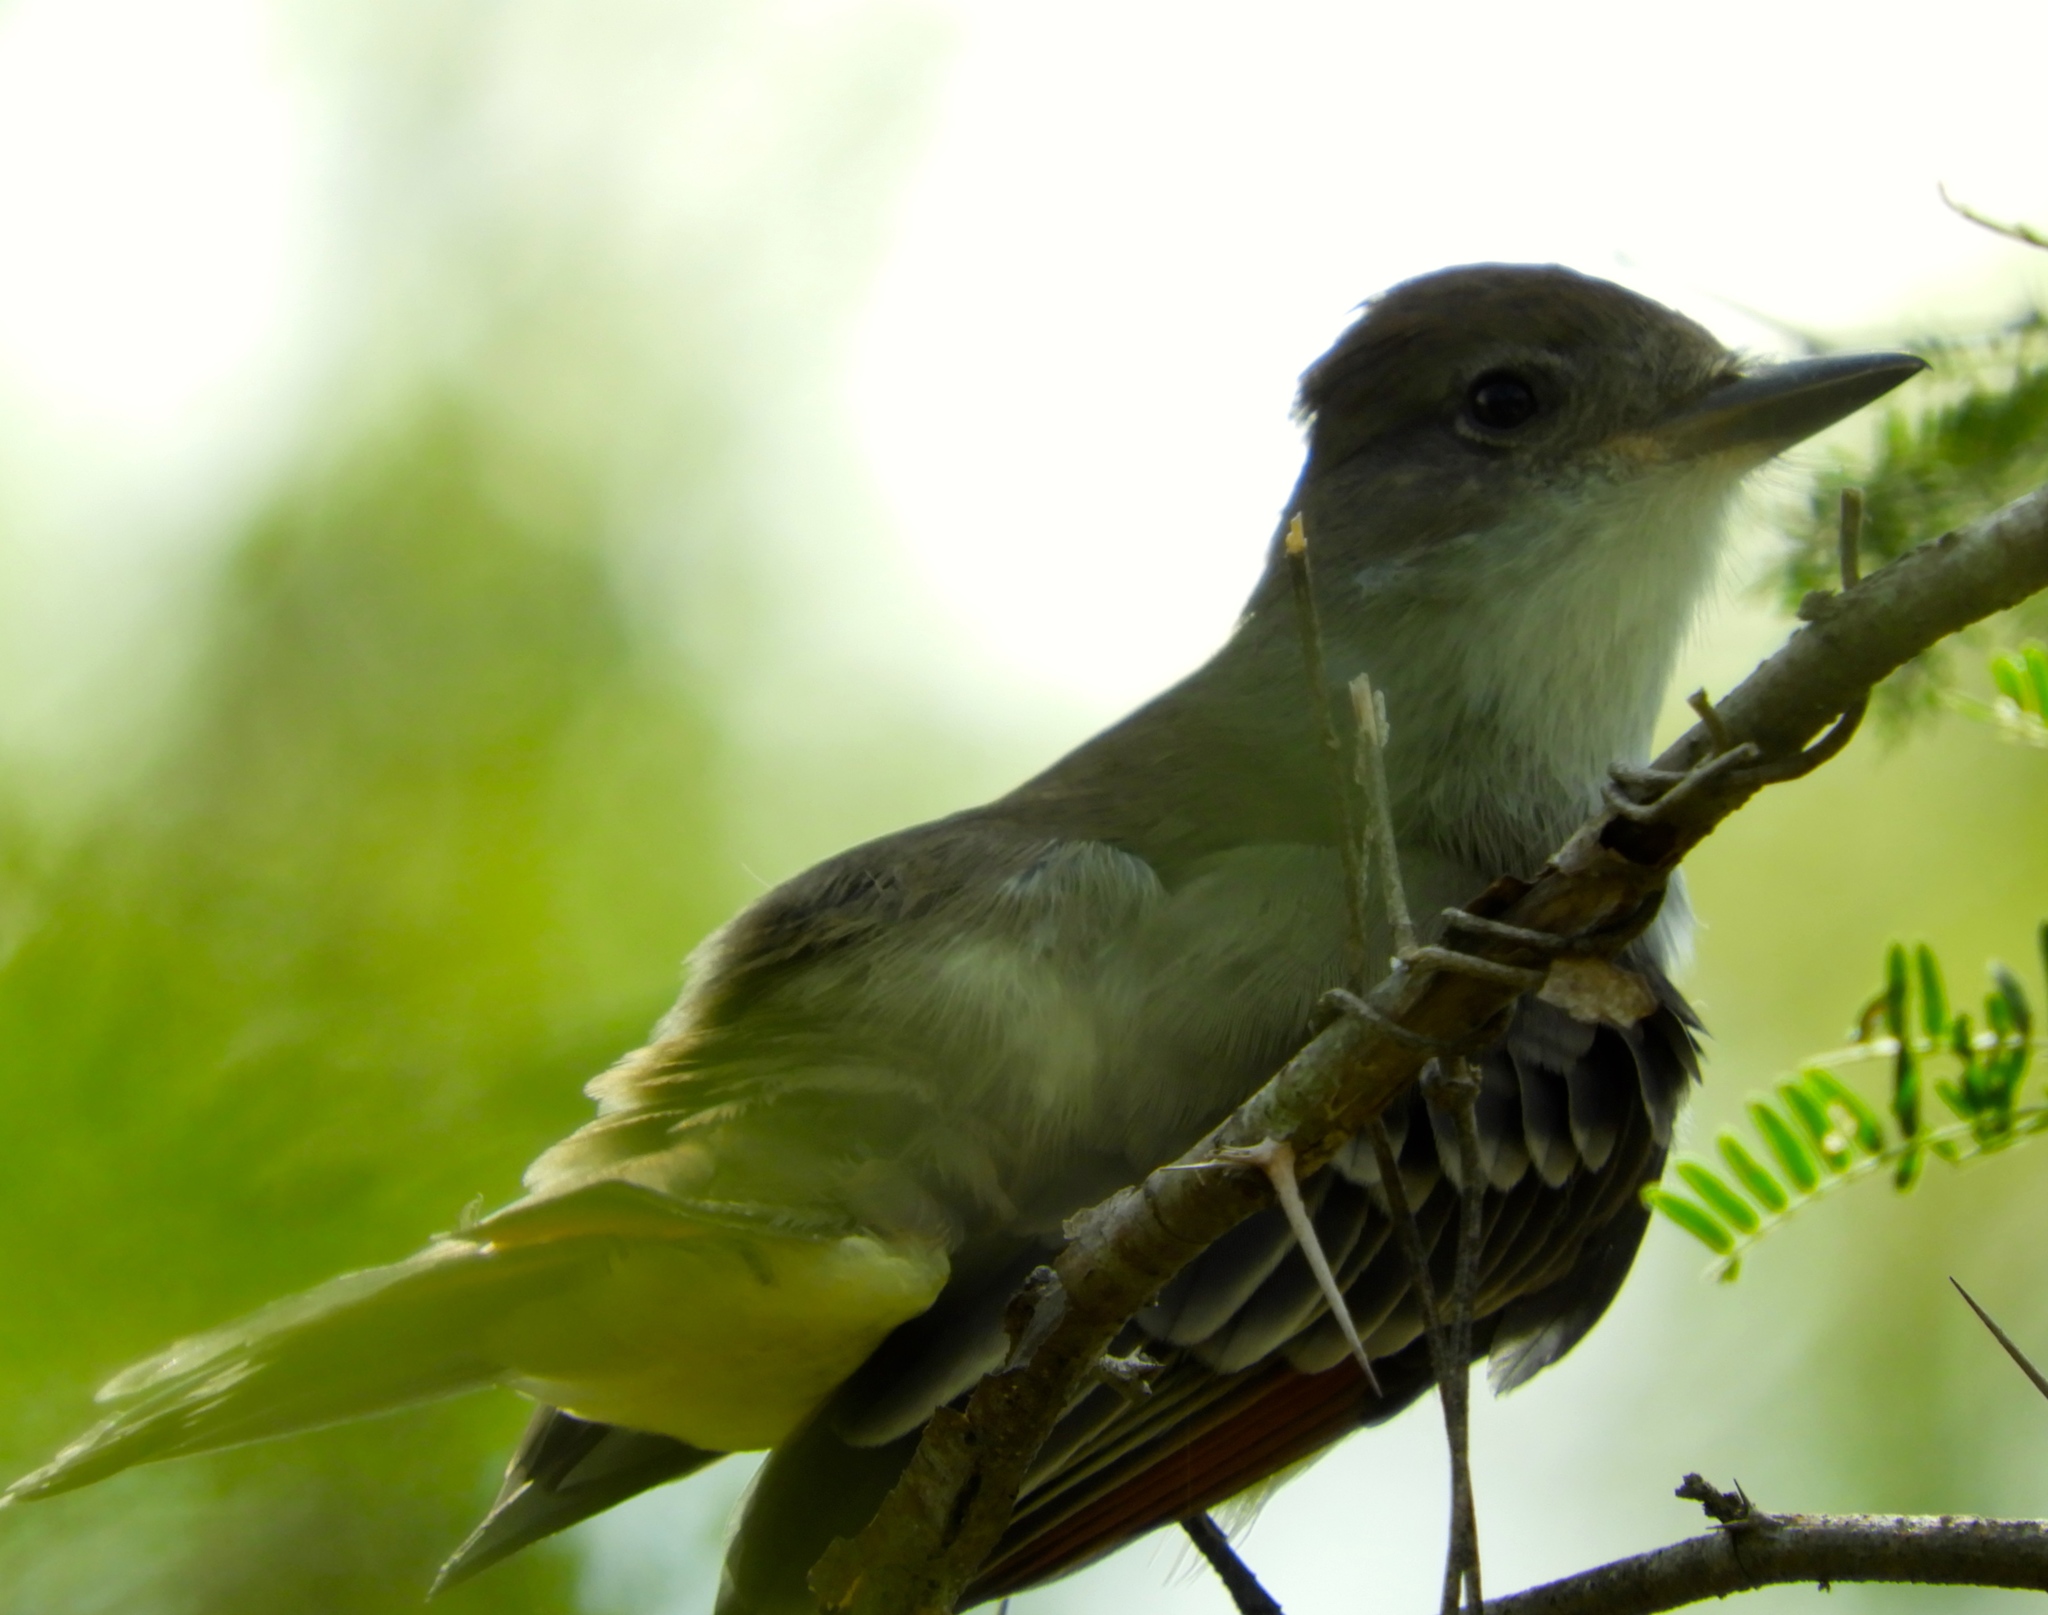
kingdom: Animalia
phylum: Chordata
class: Aves
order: Passeriformes
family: Tyrannidae
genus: Myiarchus
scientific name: Myiarchus
